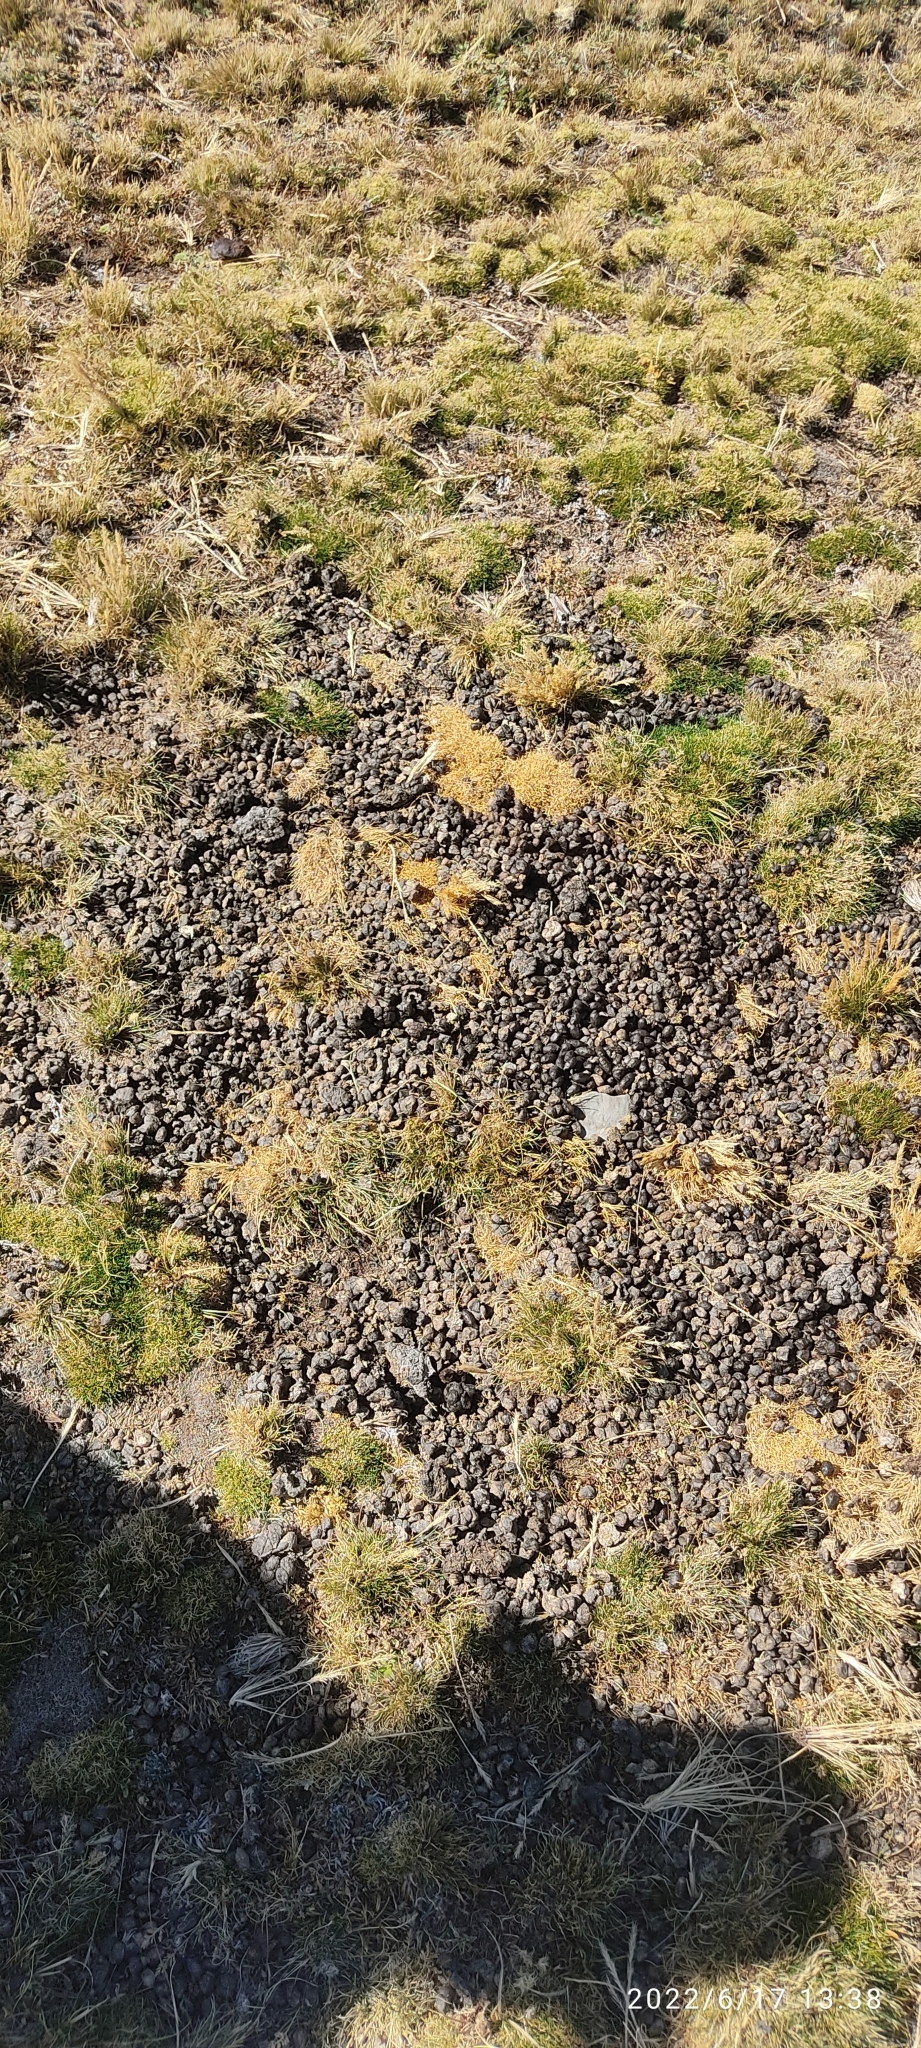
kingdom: Animalia
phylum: Chordata
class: Mammalia
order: Artiodactyla
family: Camelidae
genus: Vicugna
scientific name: Vicugna vicugna
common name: Vicugna
